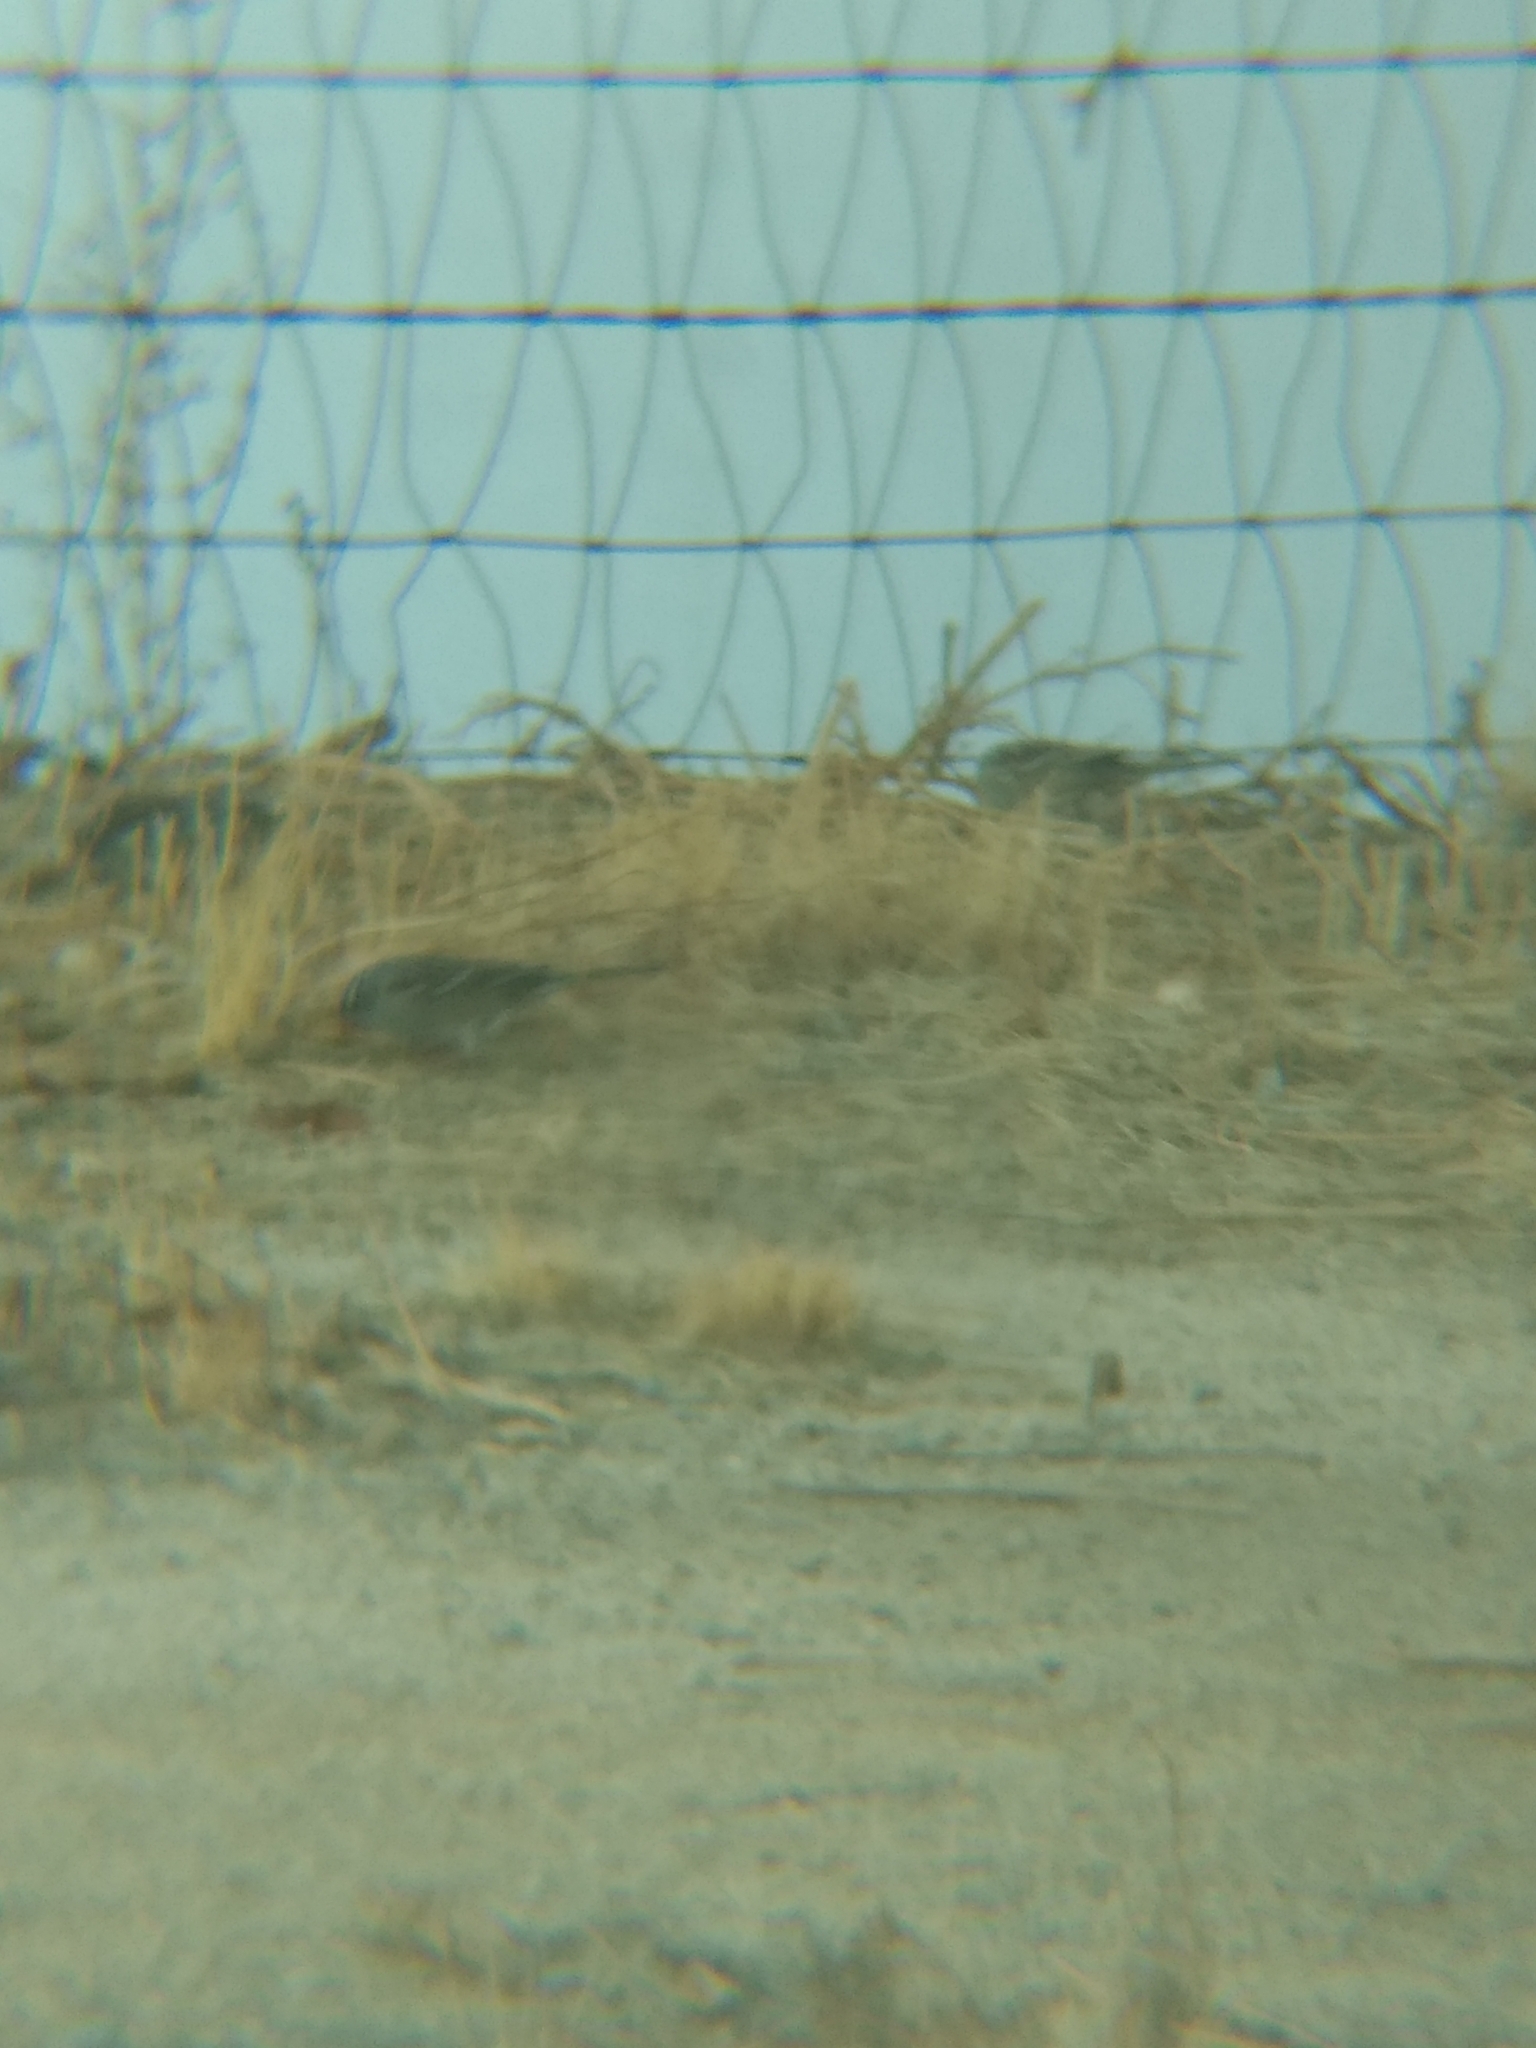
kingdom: Animalia
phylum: Chordata
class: Aves
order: Passeriformes
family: Passerellidae
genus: Zonotrichia
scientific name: Zonotrichia leucophrys
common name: White-crowned sparrow
